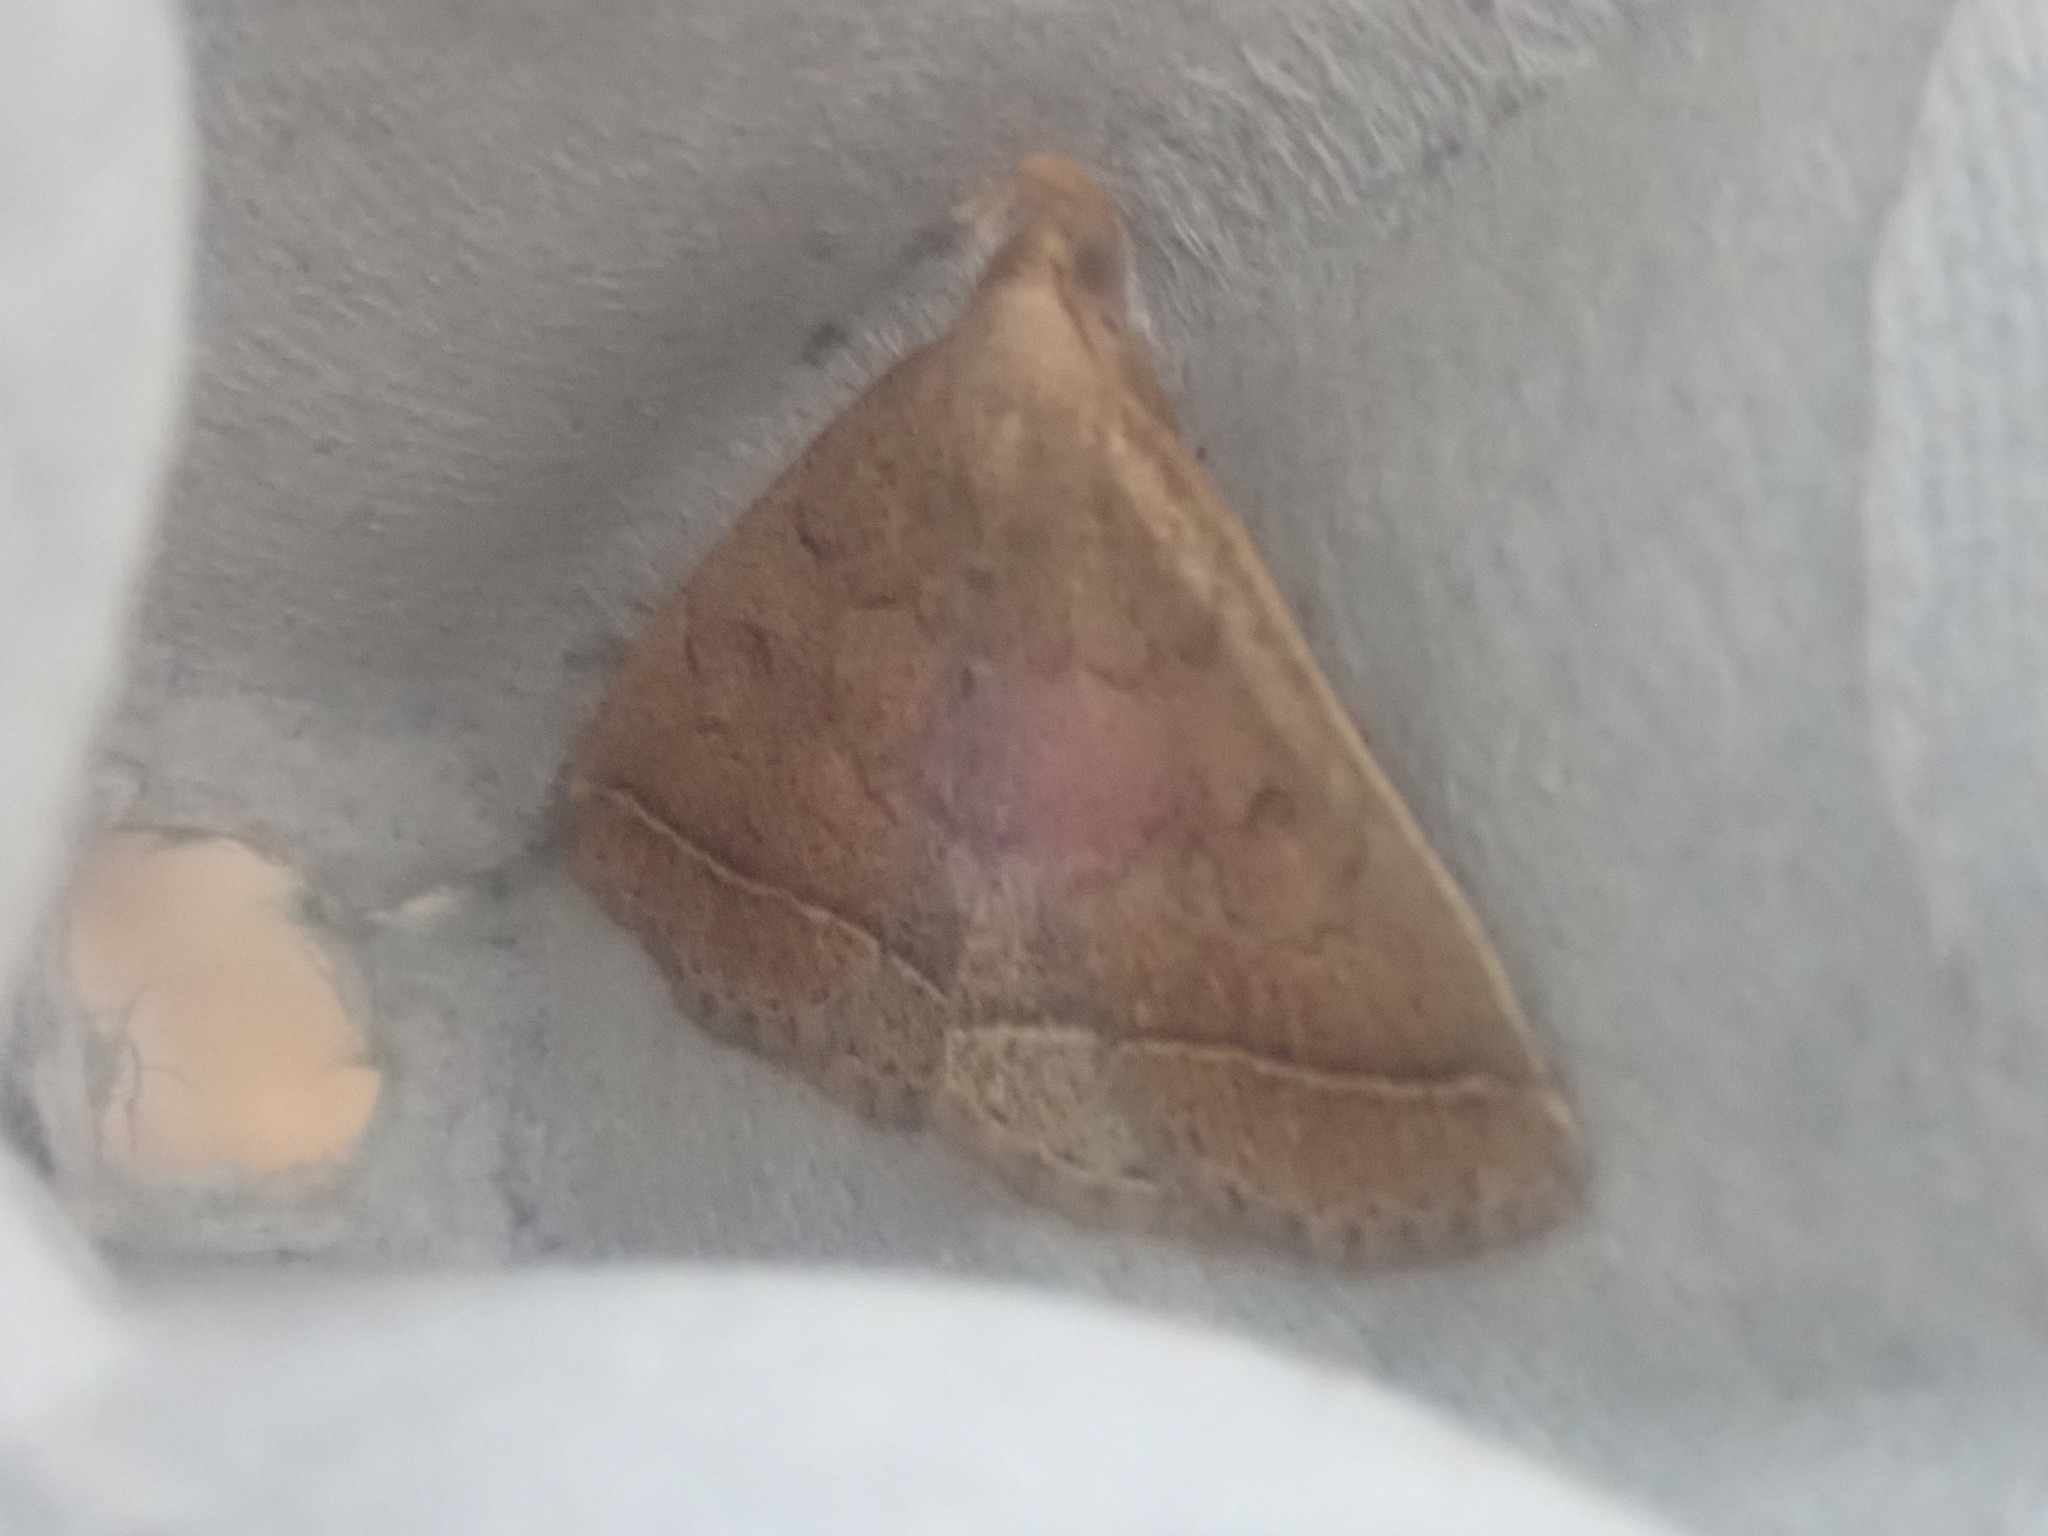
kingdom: Animalia
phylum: Arthropoda
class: Insecta
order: Lepidoptera
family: Erebidae
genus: Zanclognatha
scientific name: Zanclognatha jacchusalis
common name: Yellowish zanclognatha
